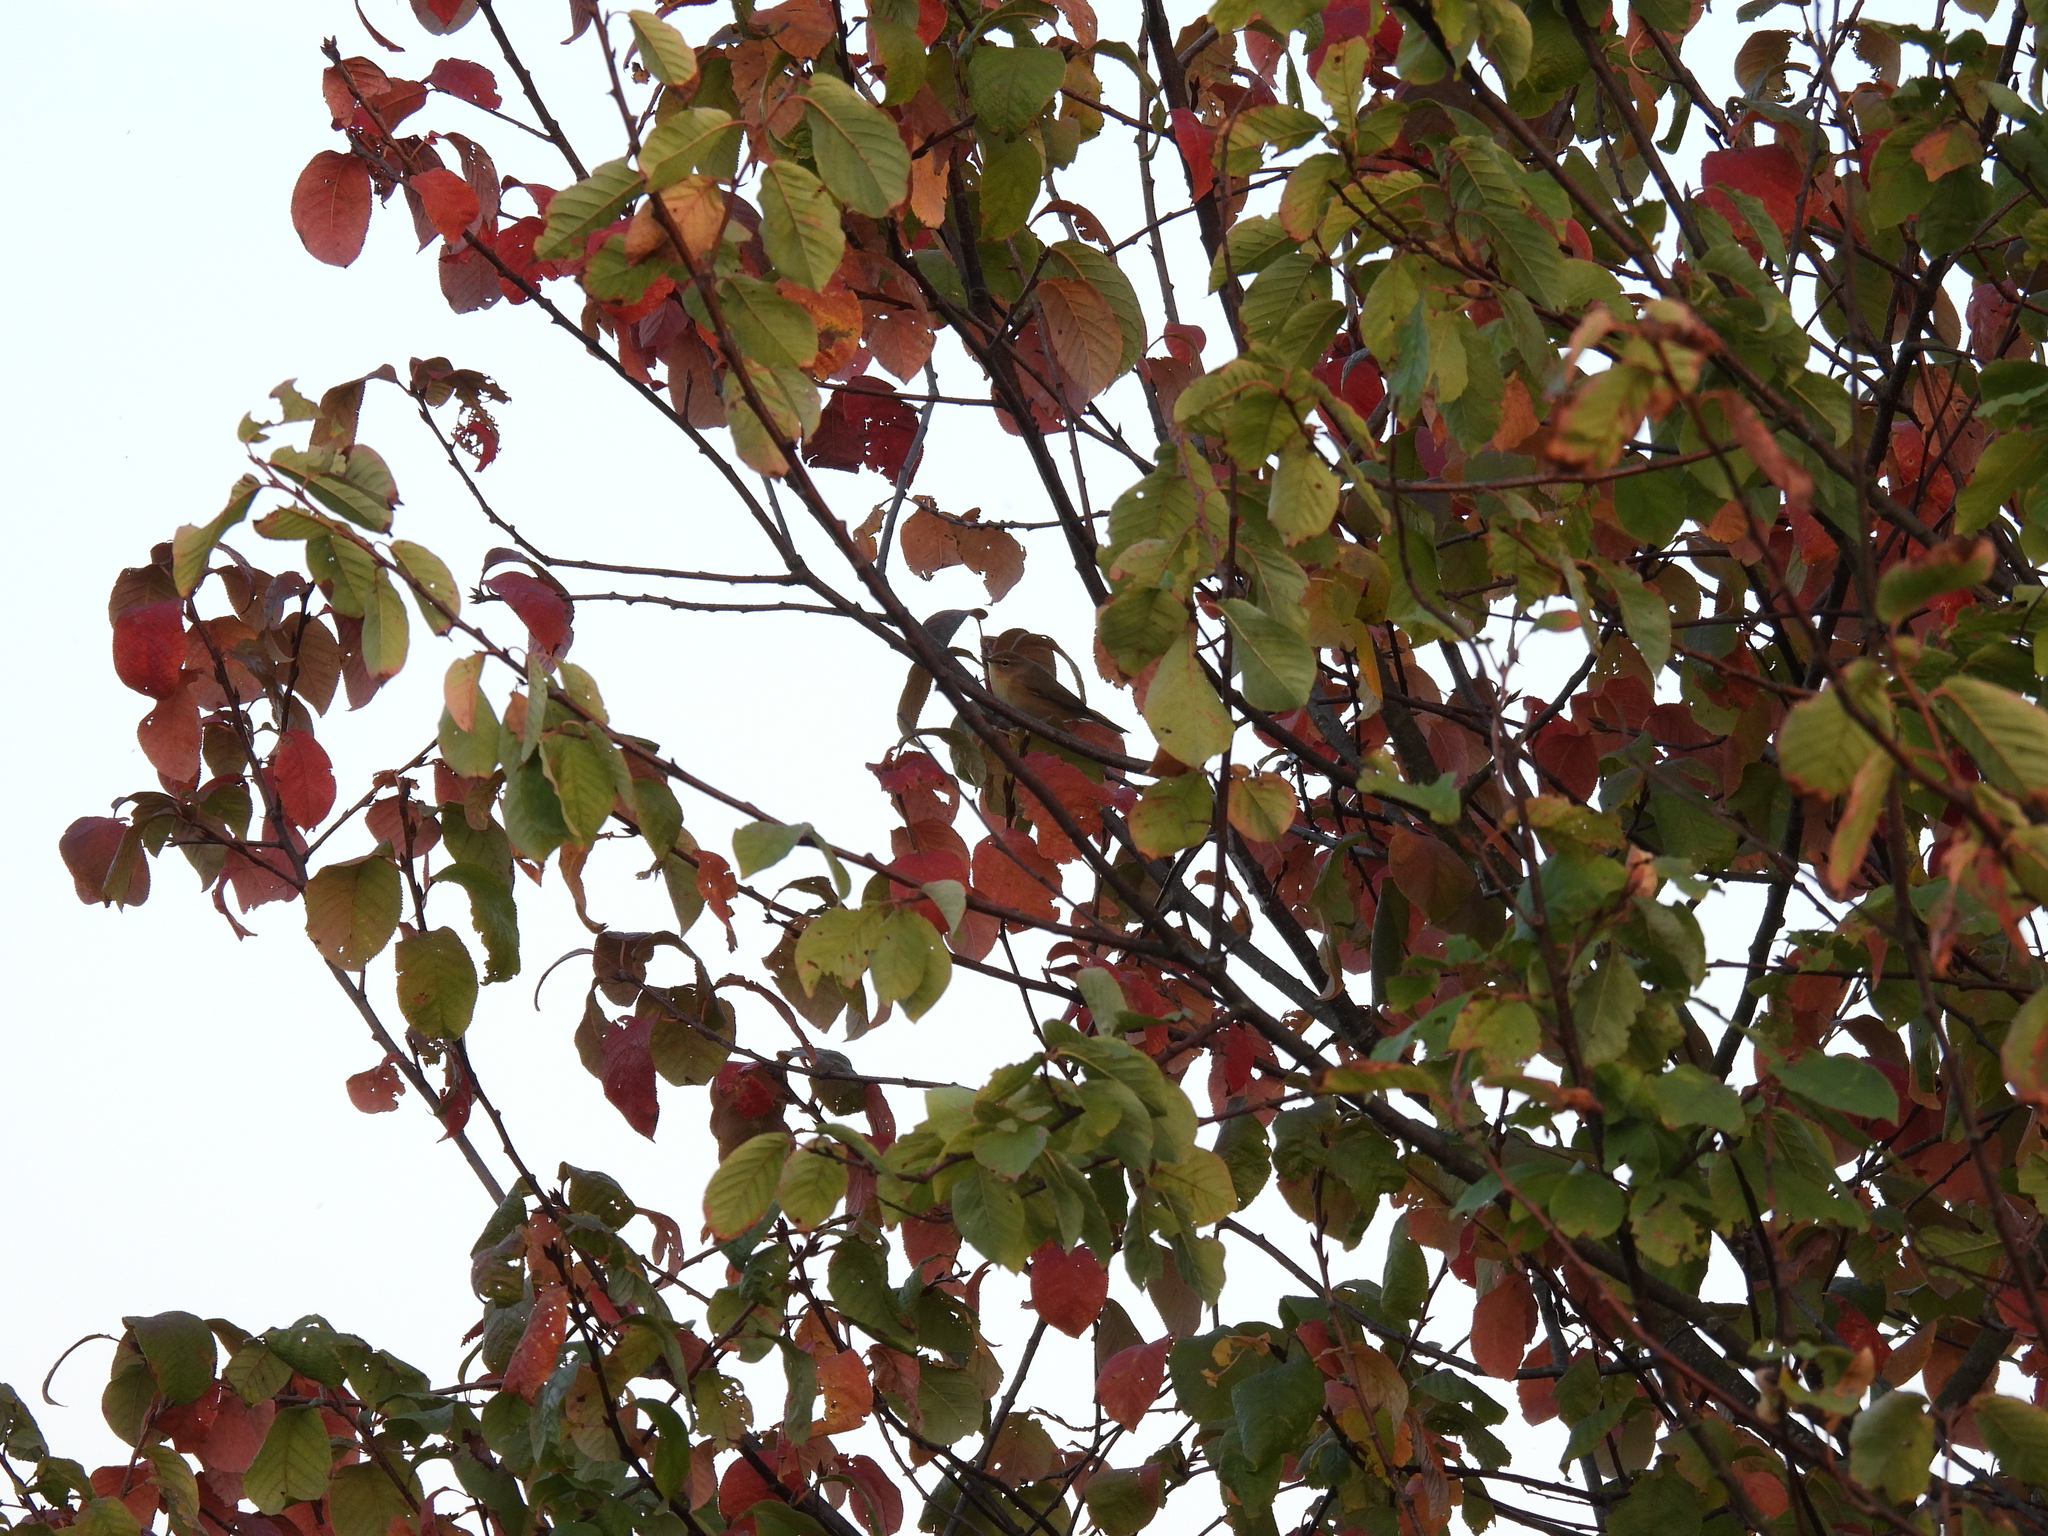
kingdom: Animalia
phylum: Chordata
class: Aves
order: Passeriformes
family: Phylloscopidae
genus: Phylloscopus
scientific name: Phylloscopus collybita
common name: Common chiffchaff
